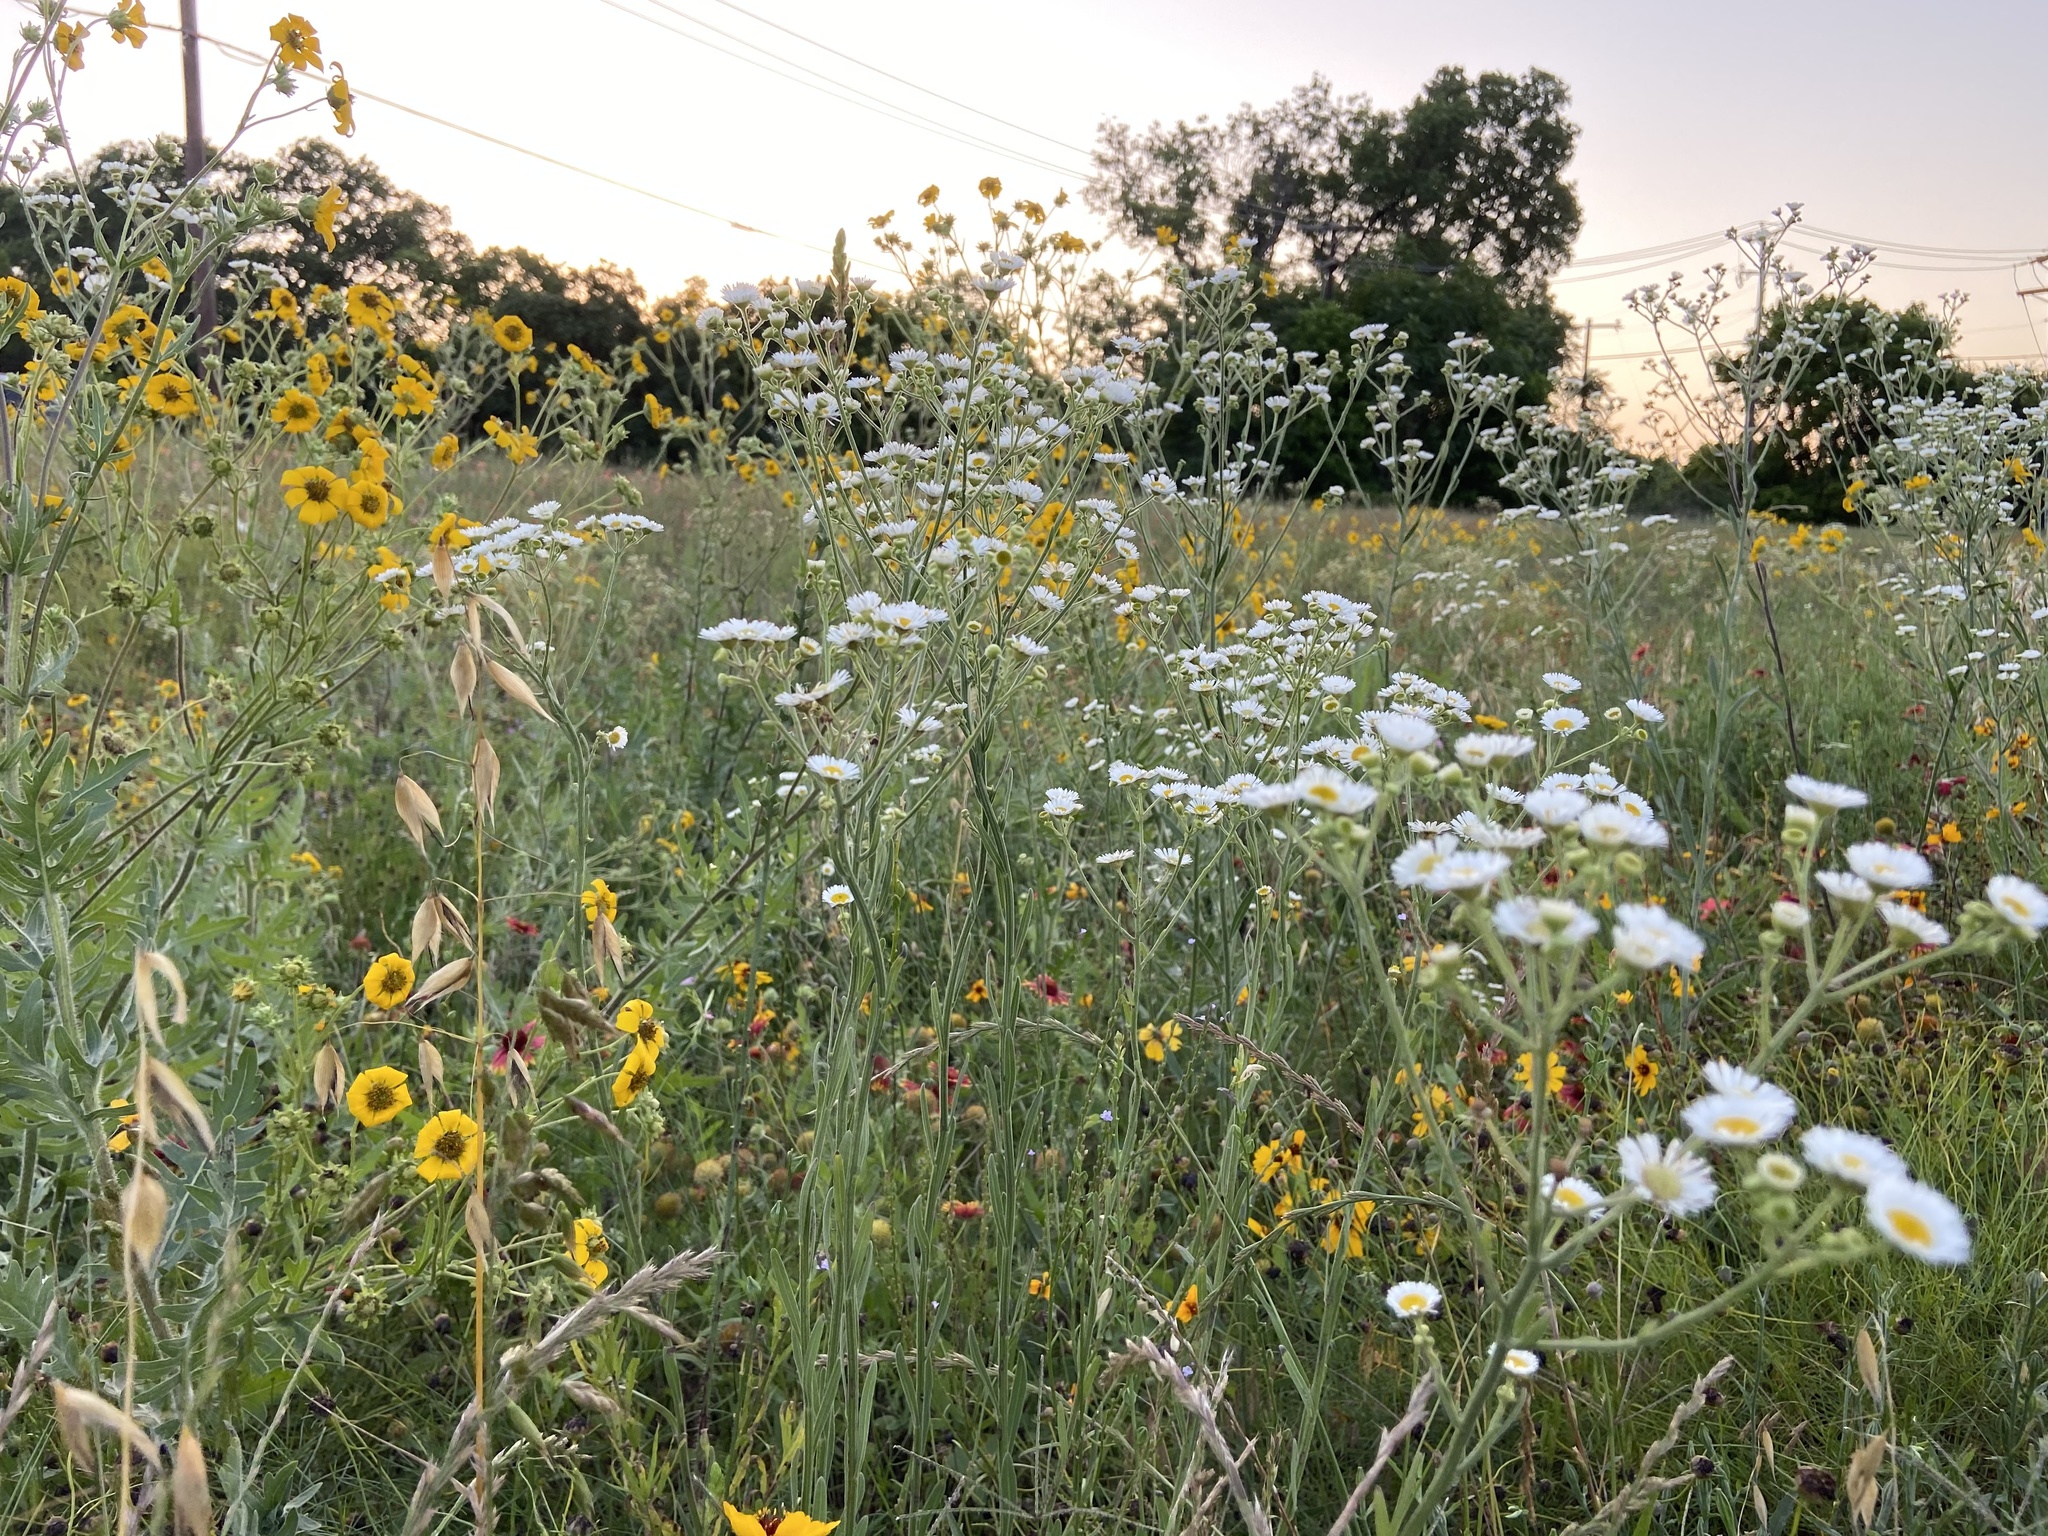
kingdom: Plantae
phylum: Tracheophyta
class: Magnoliopsida
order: Asterales
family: Asteraceae
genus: Erigeron
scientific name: Erigeron strigosus
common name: Common eastern fleabane
